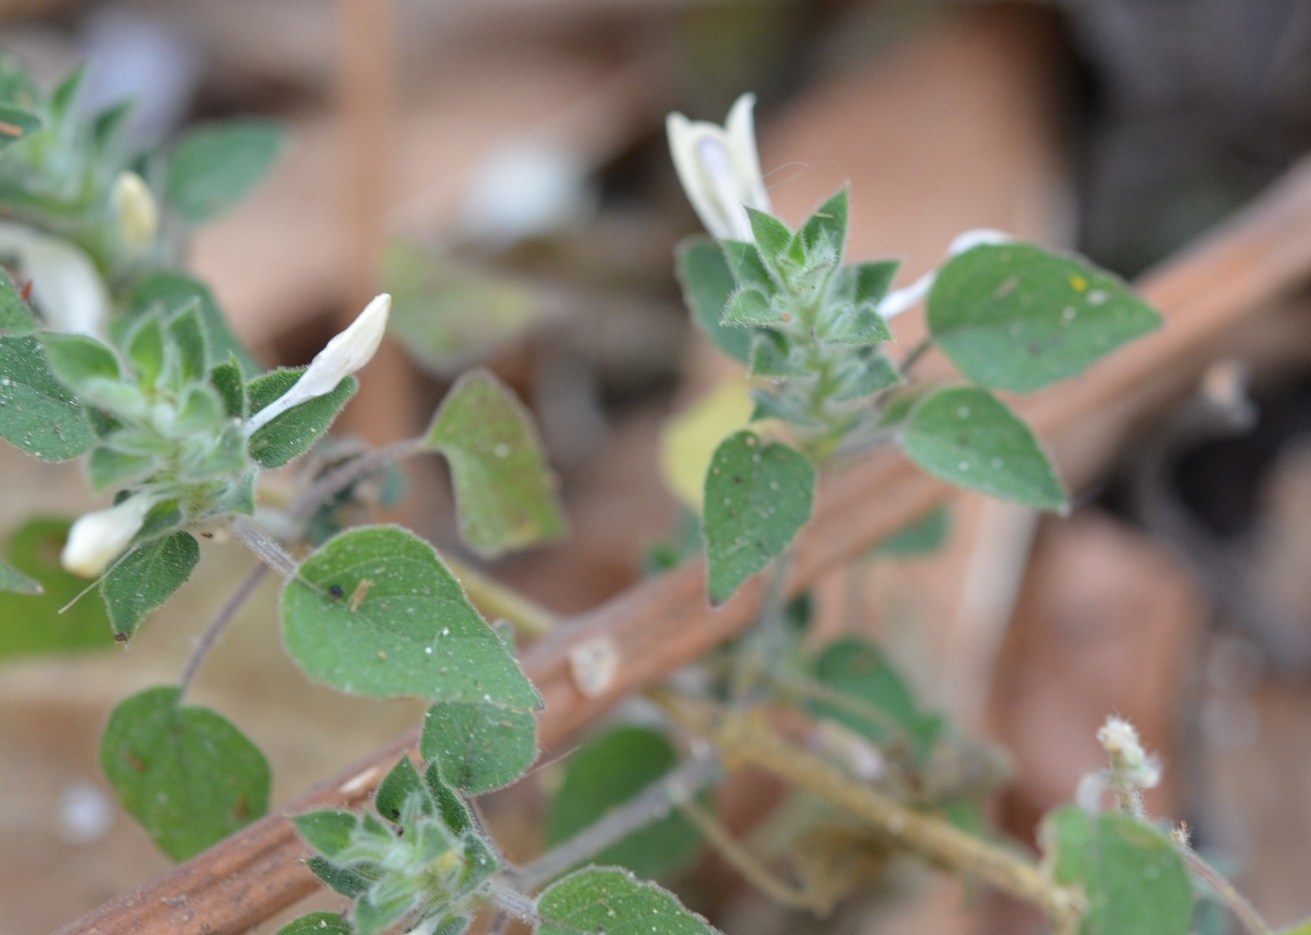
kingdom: Plantae
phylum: Tracheophyta
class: Magnoliopsida
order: Lamiales
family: Acanthaceae
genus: Tetramerium
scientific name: Tetramerium nemorum
